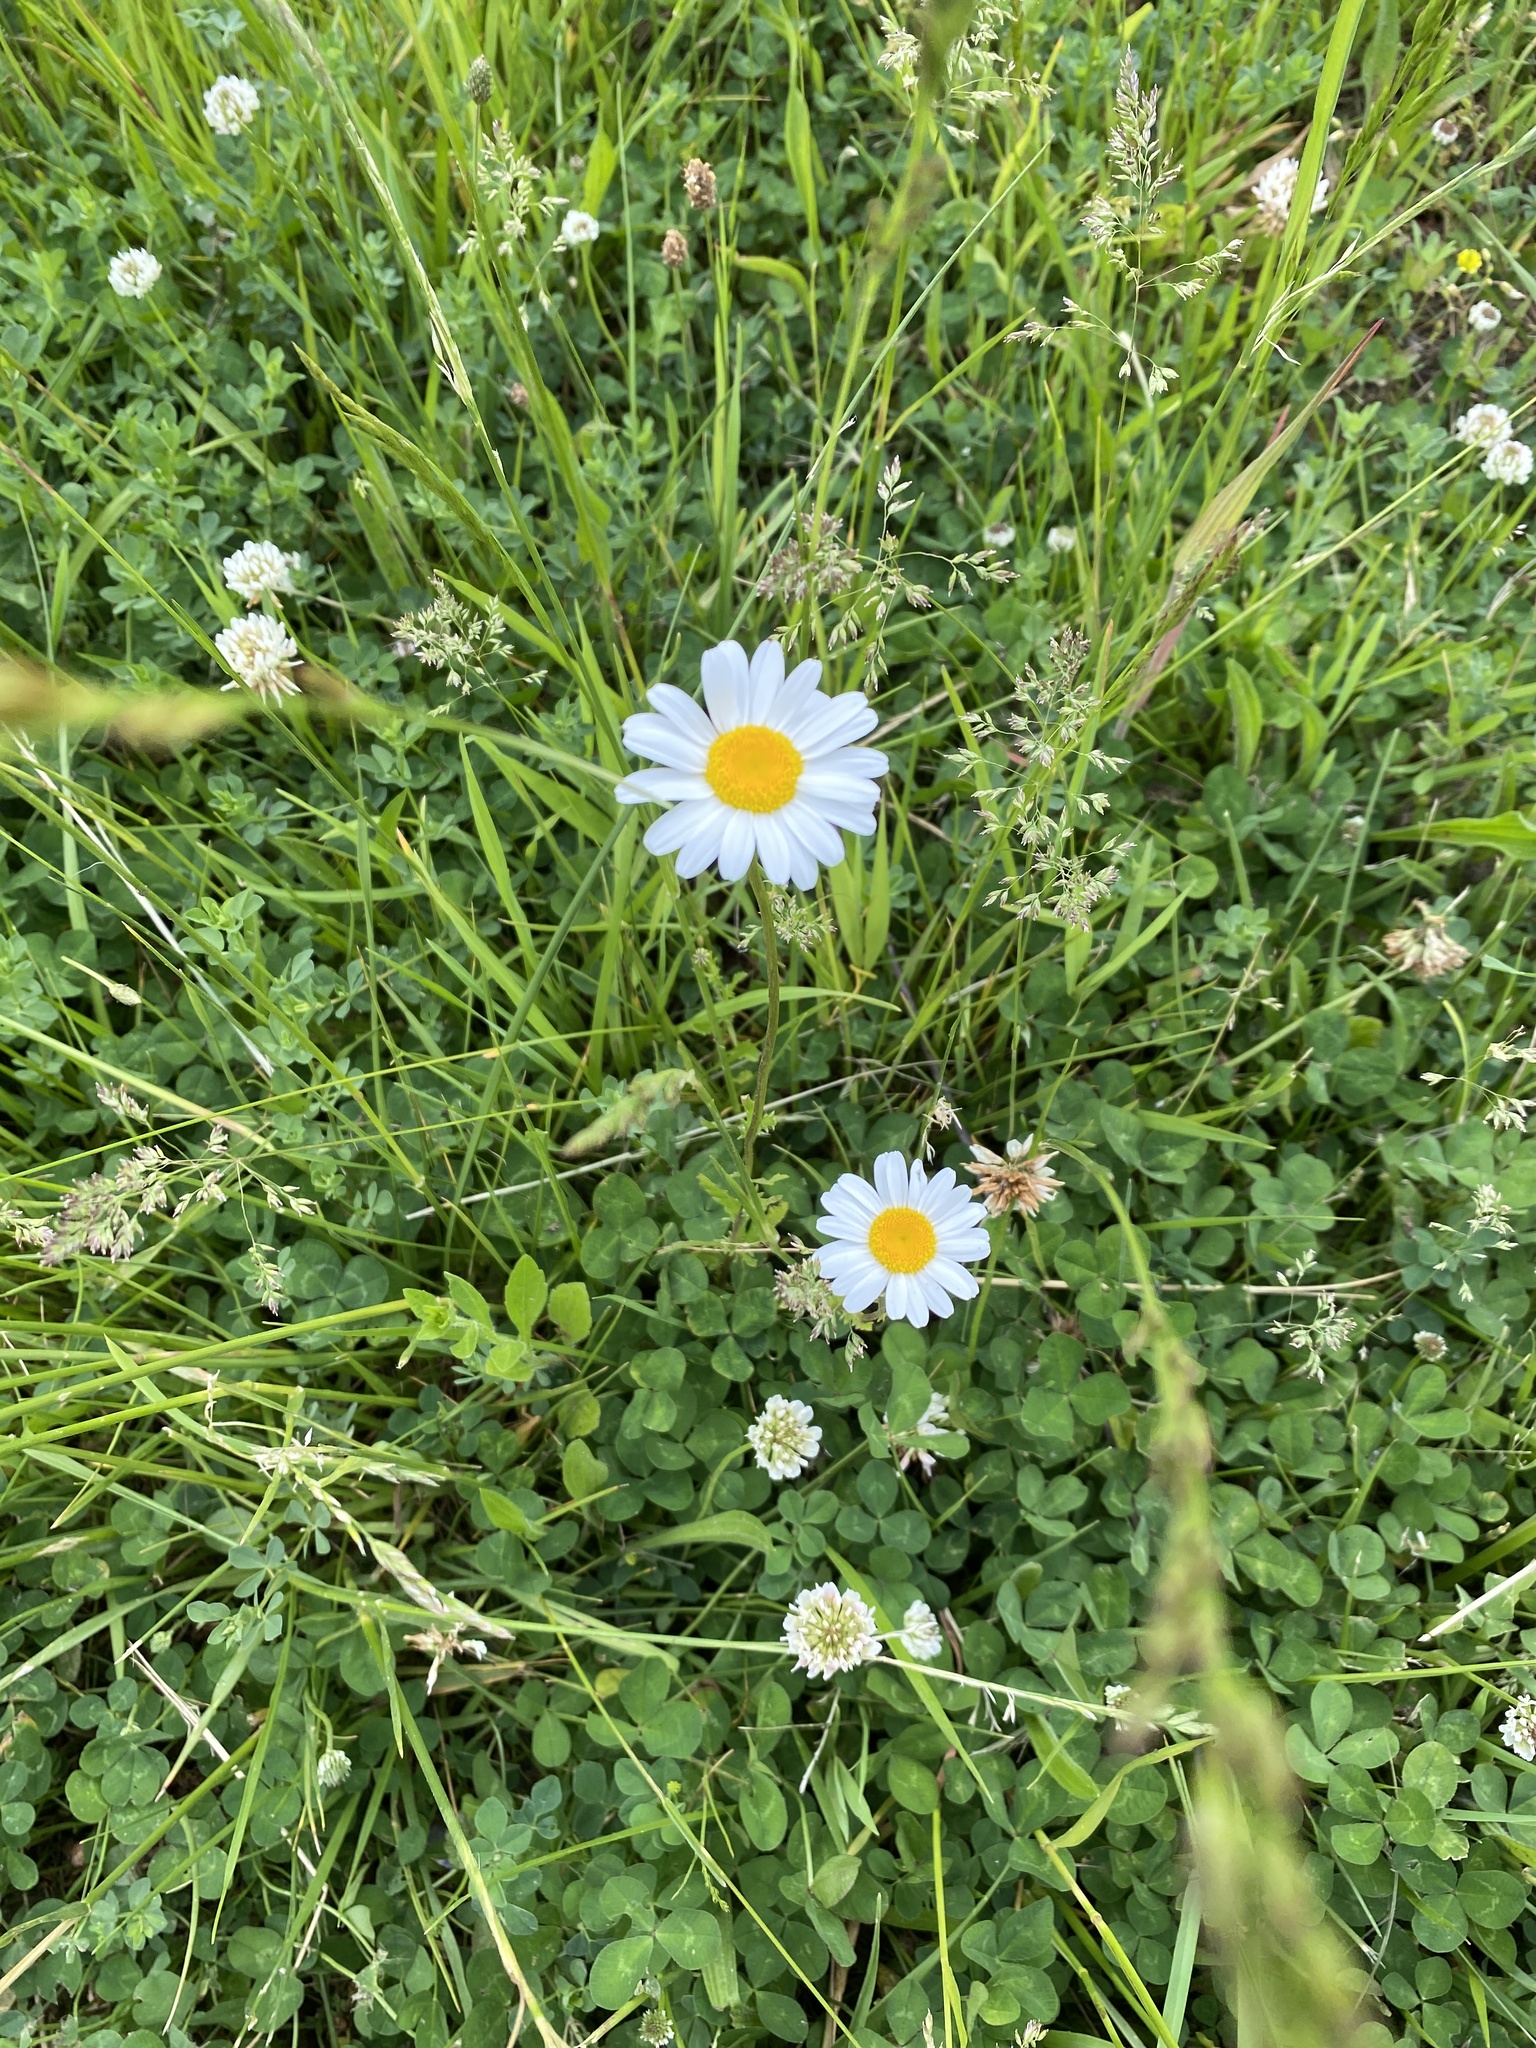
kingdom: Plantae
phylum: Tracheophyta
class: Magnoliopsida
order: Asterales
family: Asteraceae
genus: Leucanthemum
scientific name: Leucanthemum vulgare
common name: Oxeye daisy
